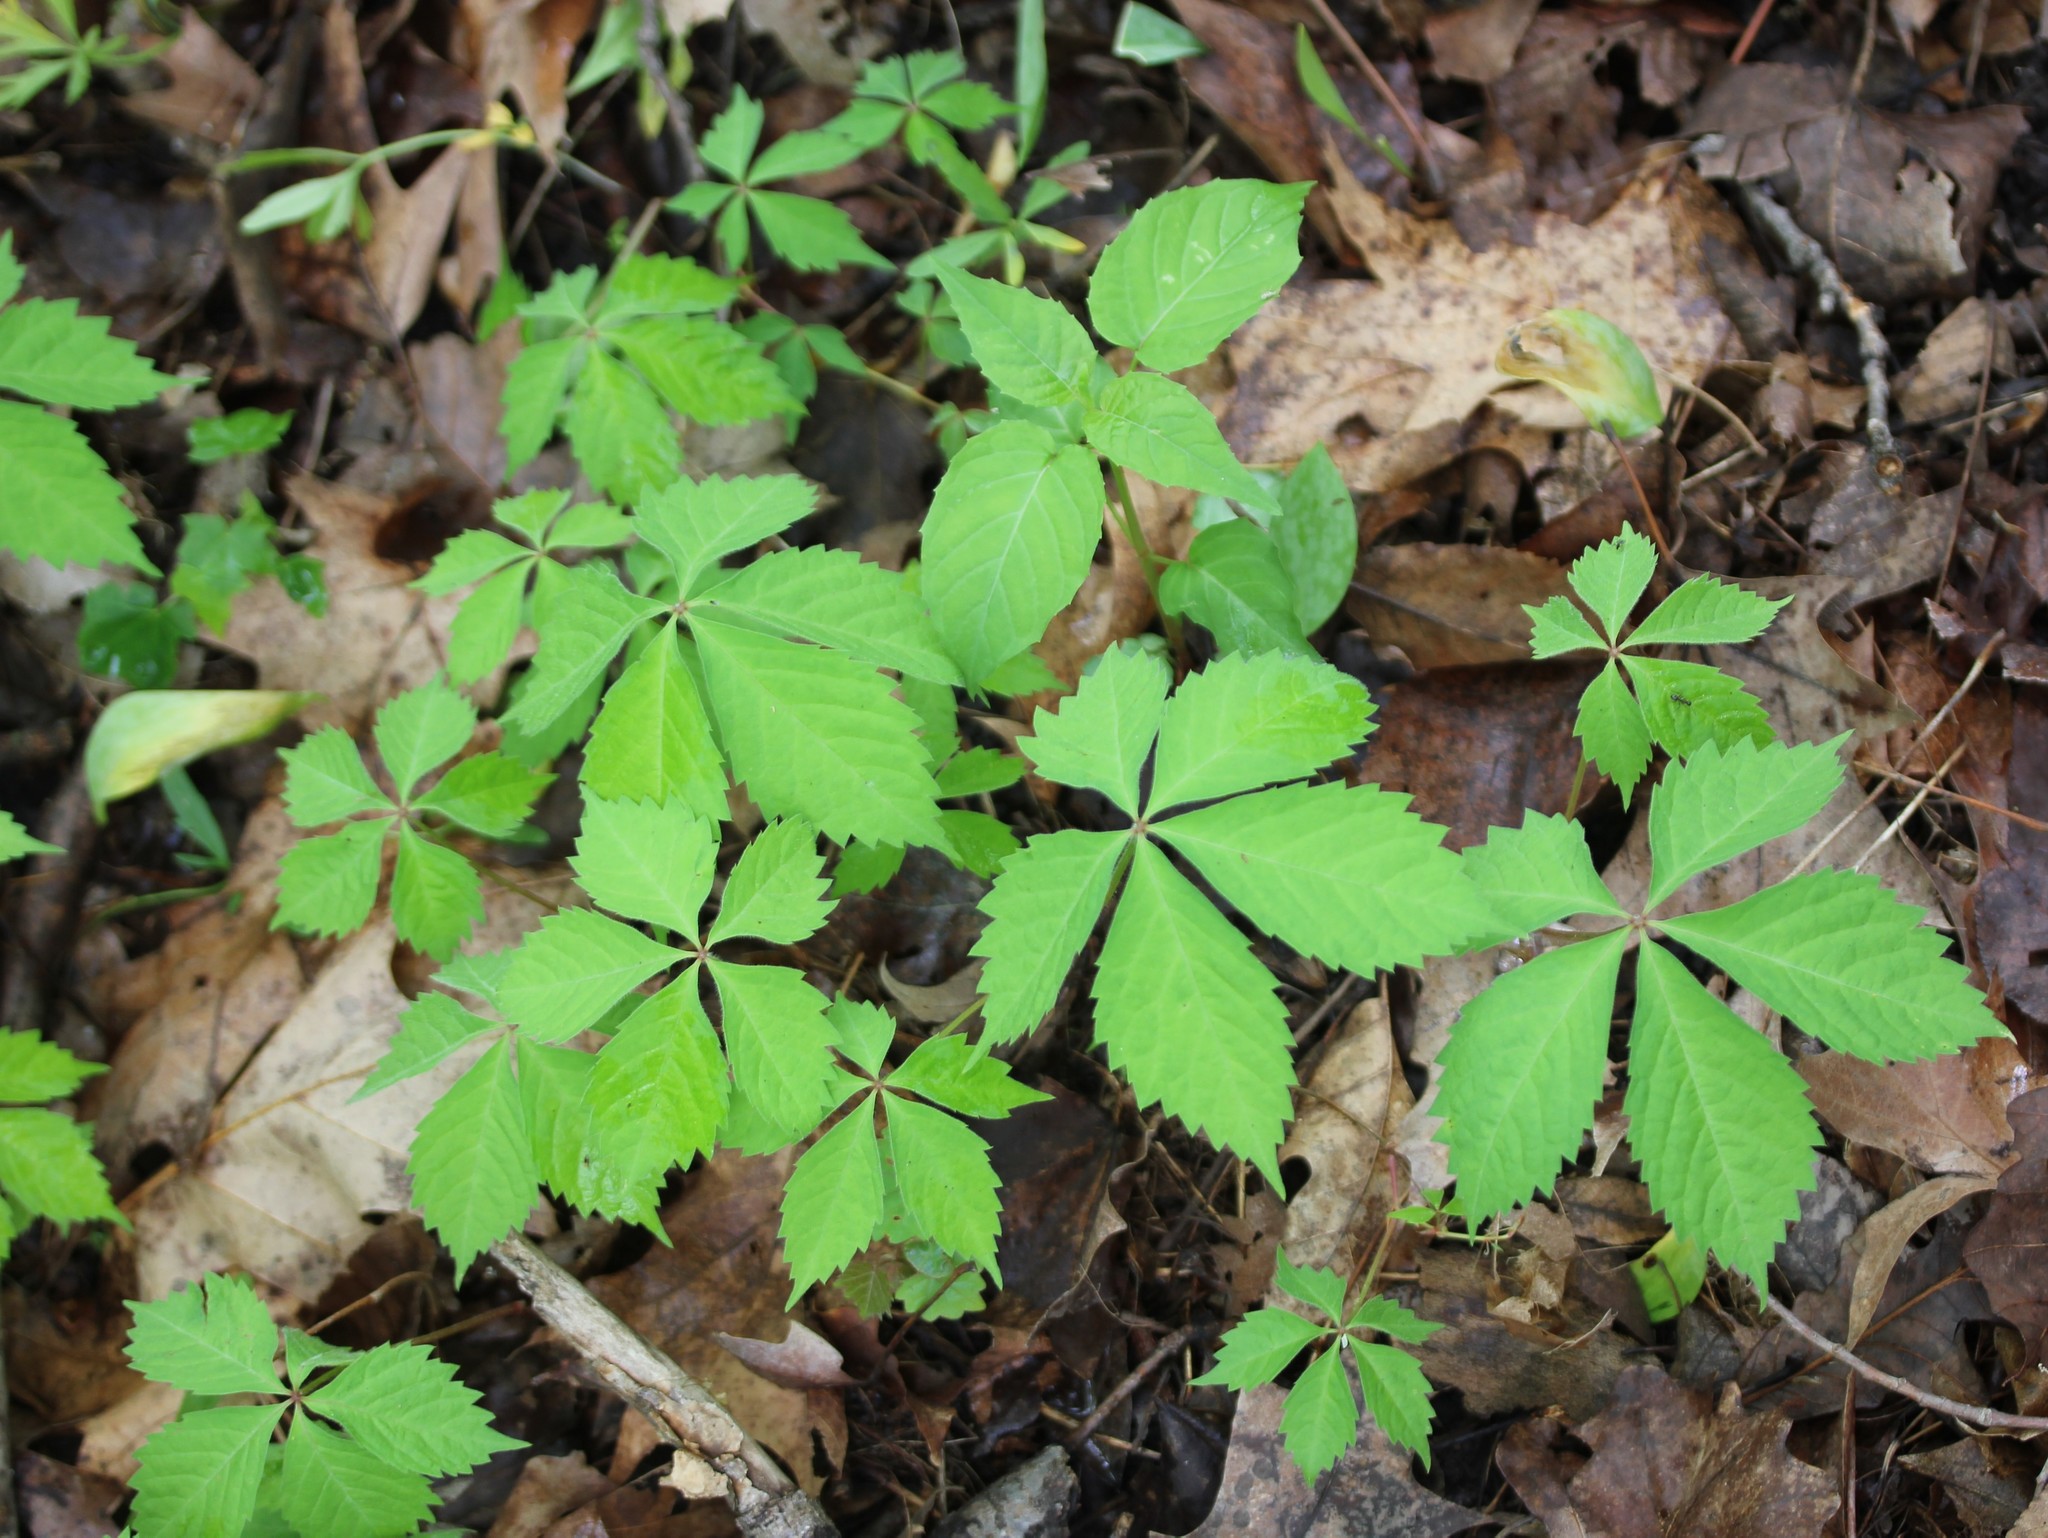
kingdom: Plantae
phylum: Tracheophyta
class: Magnoliopsida
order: Vitales
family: Vitaceae
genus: Parthenocissus
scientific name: Parthenocissus quinquefolia
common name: Virginia-creeper
